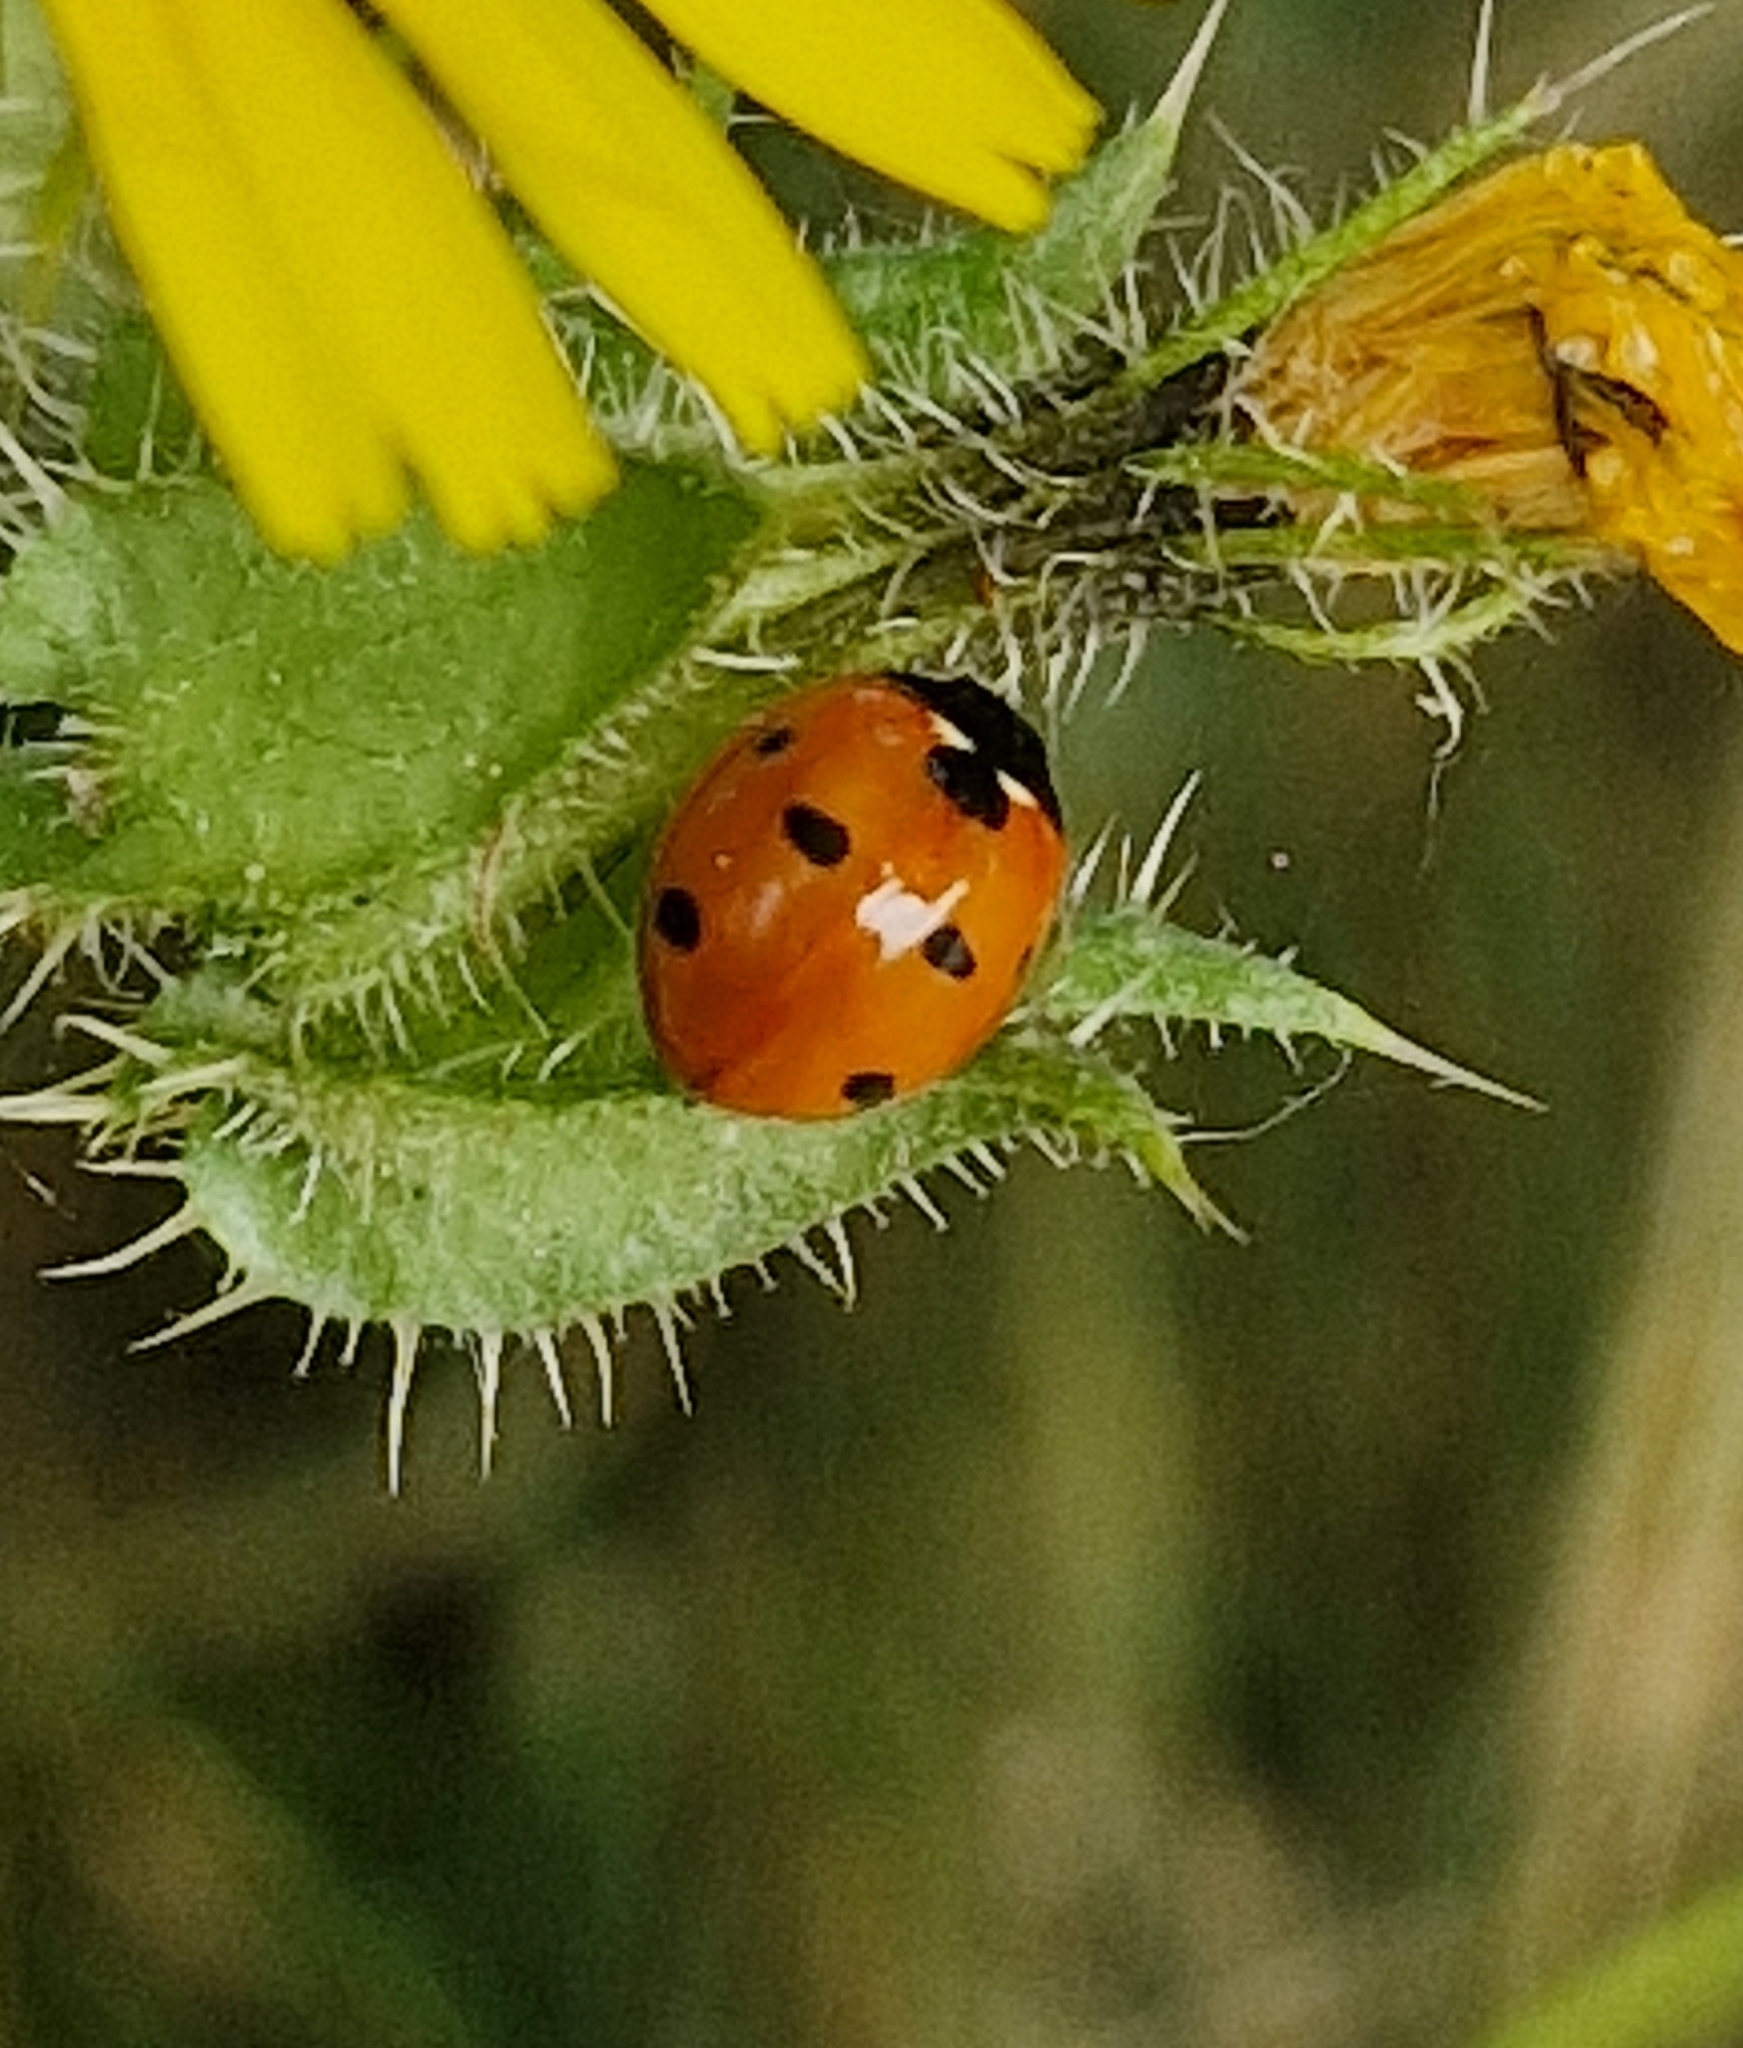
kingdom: Animalia
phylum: Arthropoda
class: Insecta
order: Coleoptera
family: Coccinellidae
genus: Coccinella
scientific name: Coccinella septempunctata
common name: Sevenspotted lady beetle
